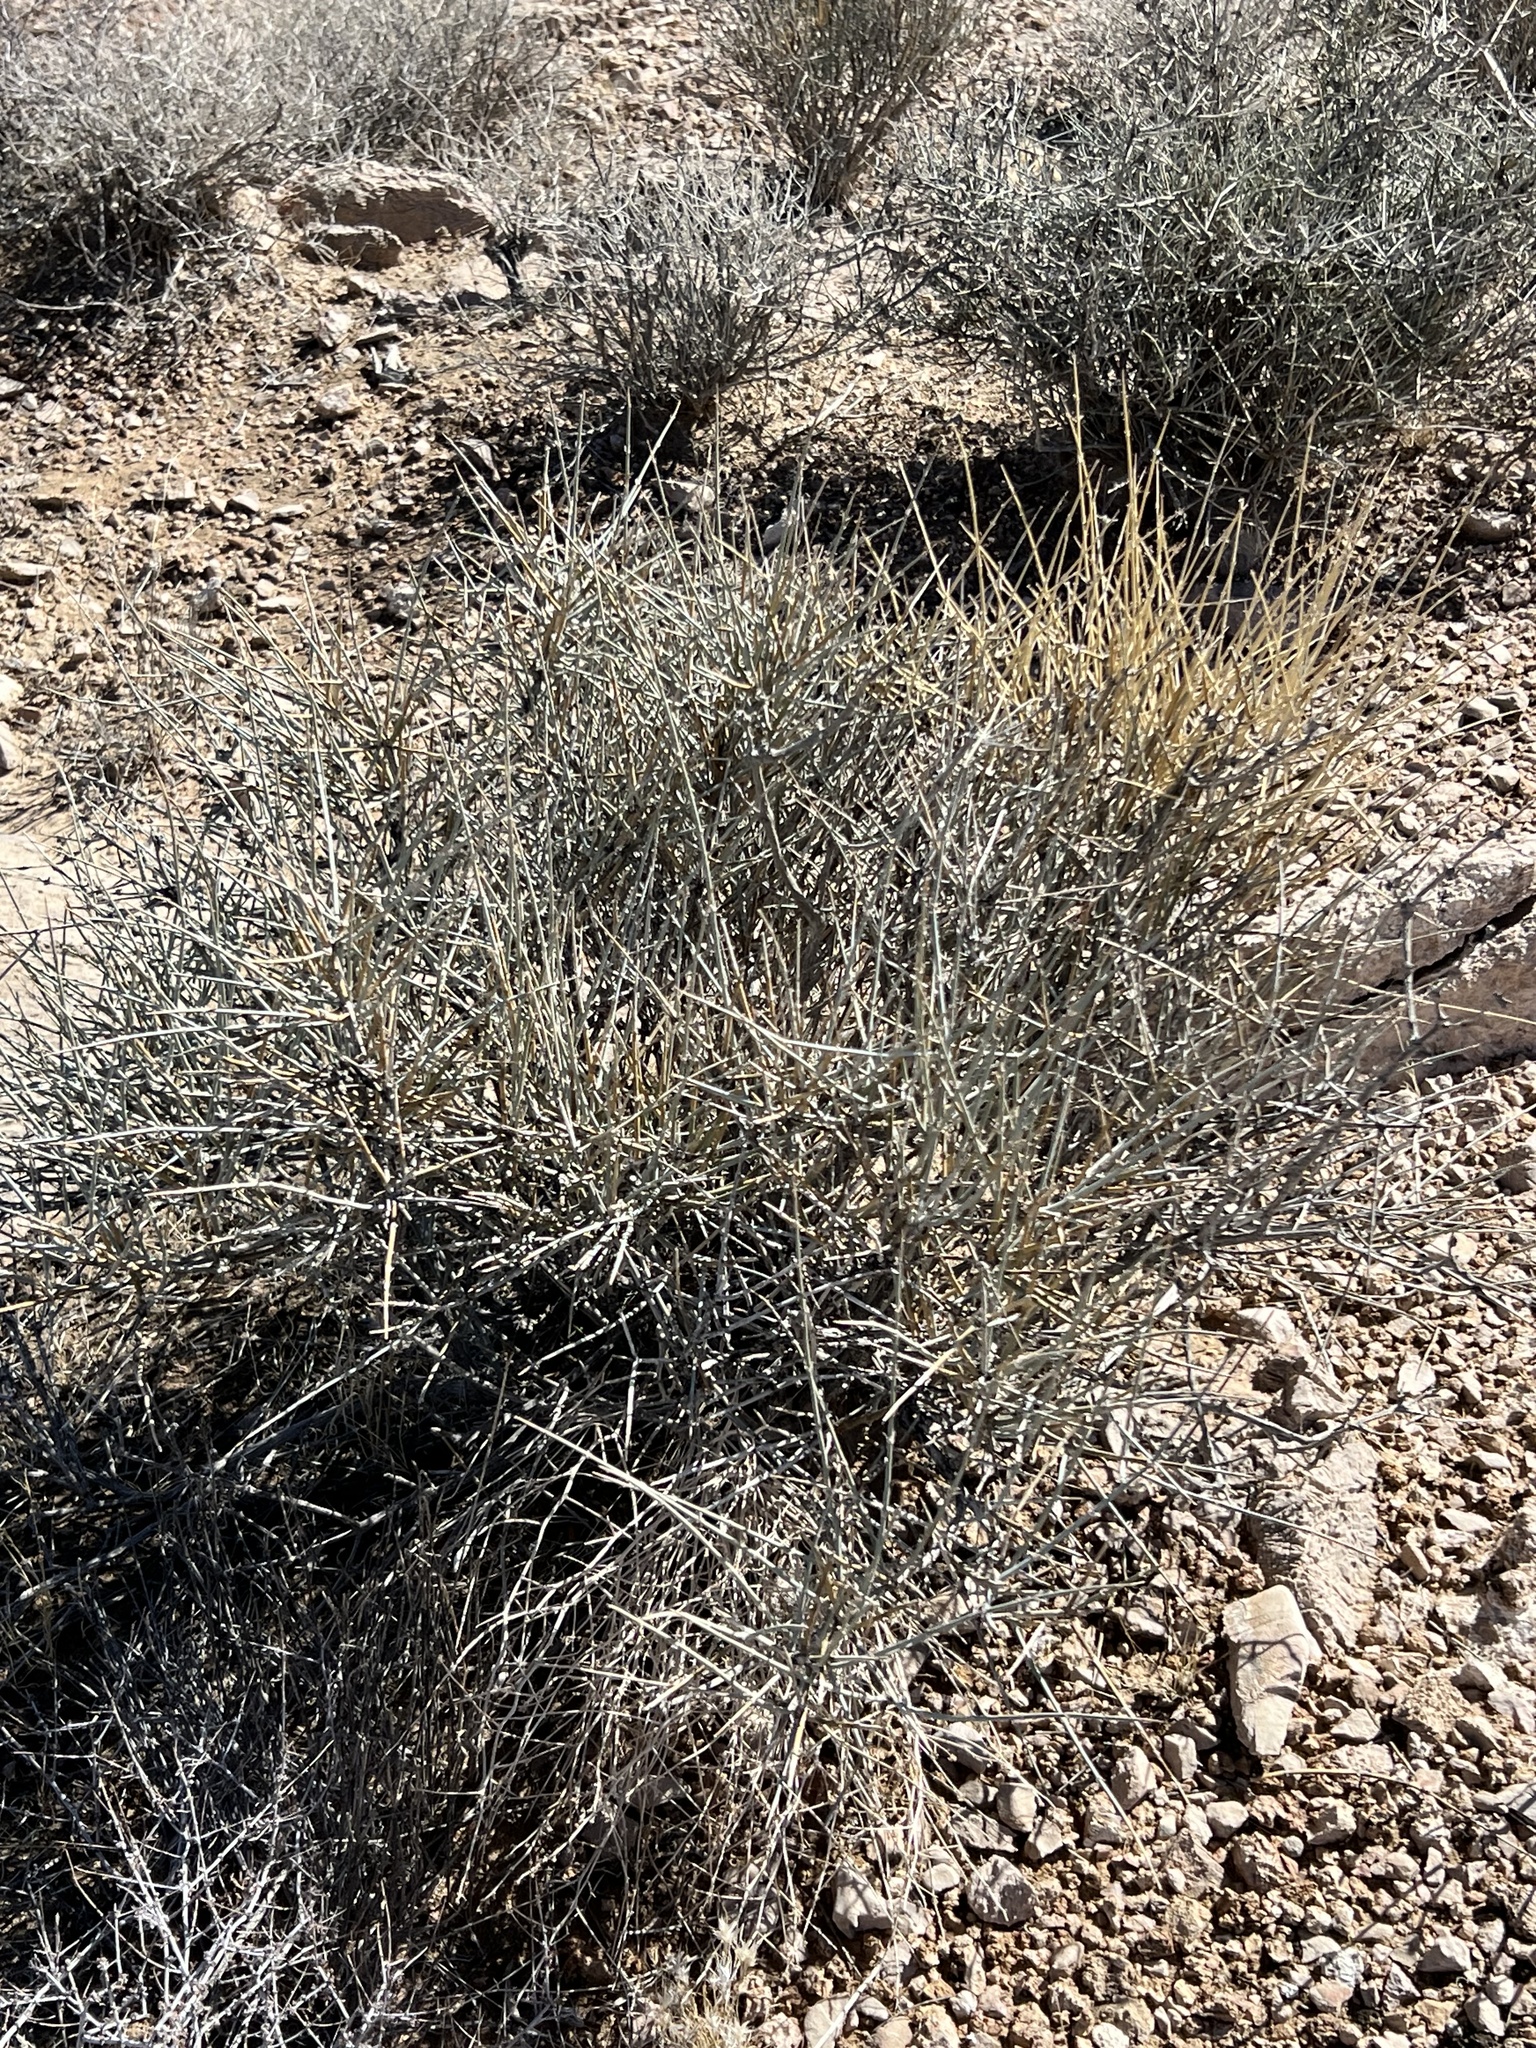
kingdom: Plantae
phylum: Tracheophyta
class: Gnetopsida
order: Ephedrales
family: Ephedraceae
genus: Ephedra
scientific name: Ephedra nevadensis
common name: Gray ephedra
